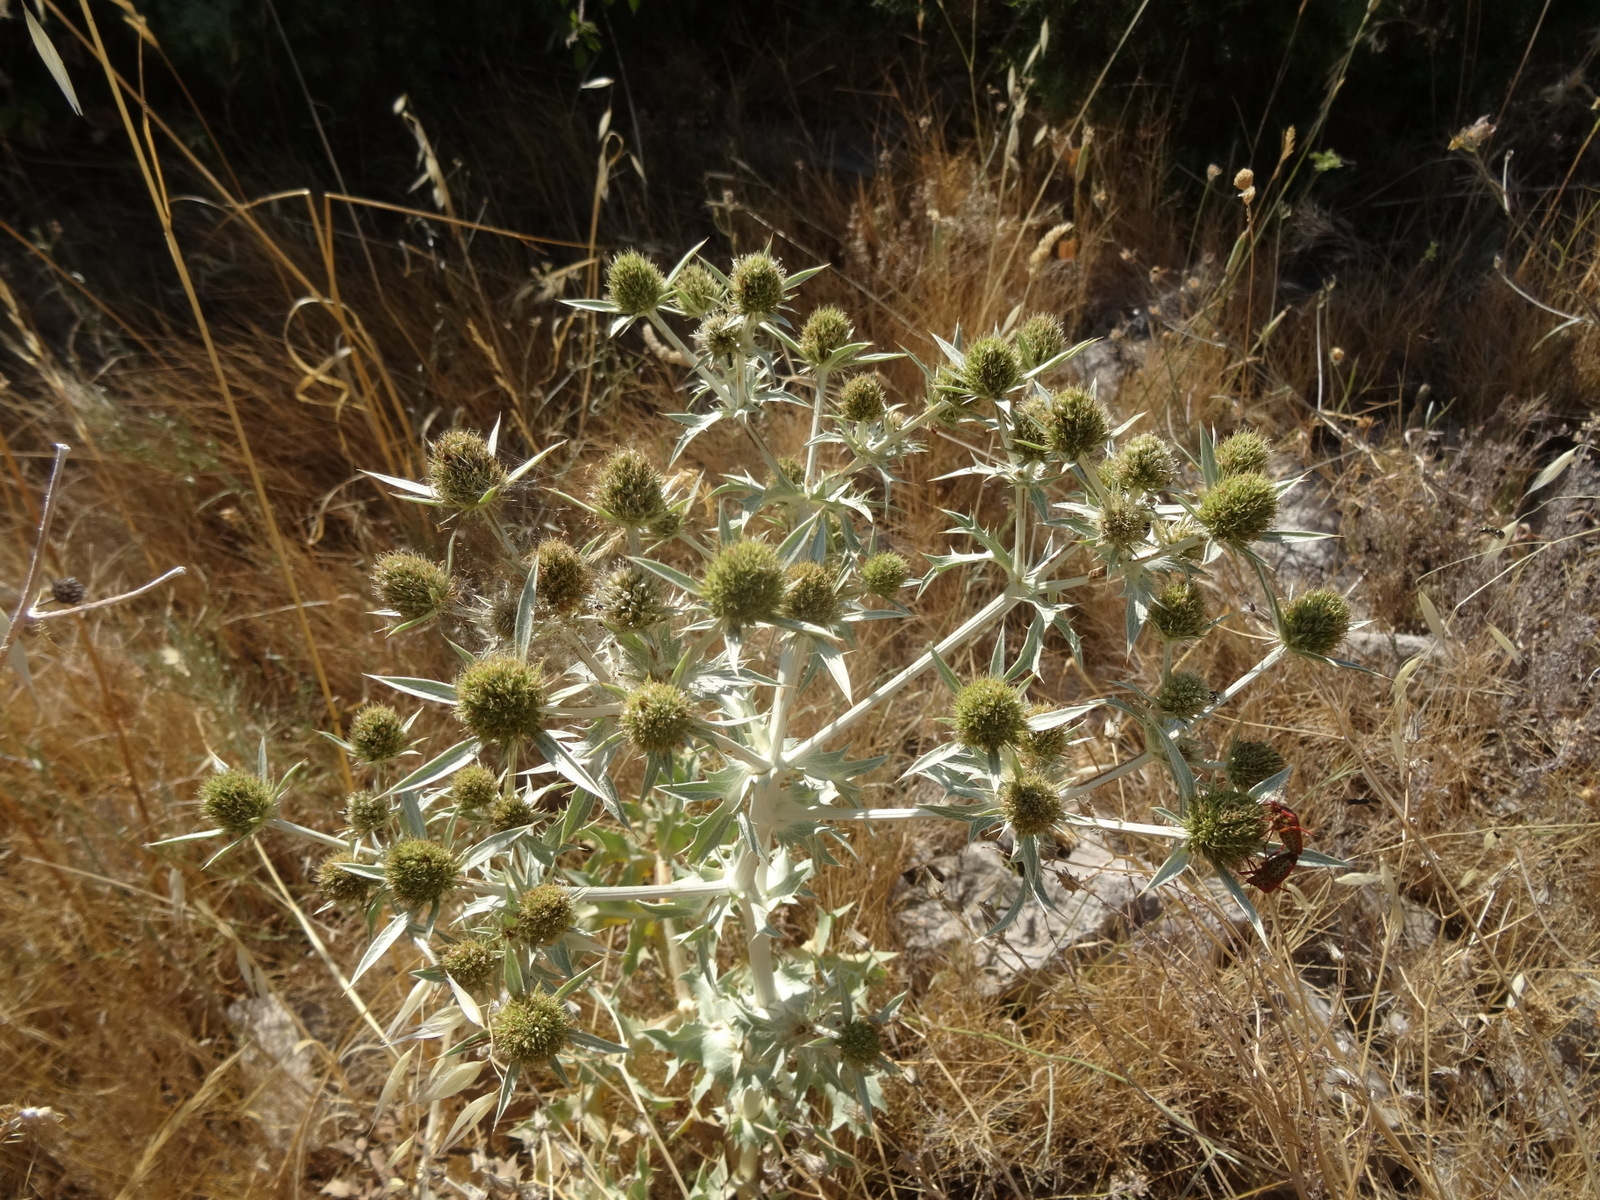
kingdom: Plantae
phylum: Tracheophyta
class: Magnoliopsida
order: Apiales
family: Apiaceae
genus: Eryngium
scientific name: Eryngium campestre
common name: Field eryngo
